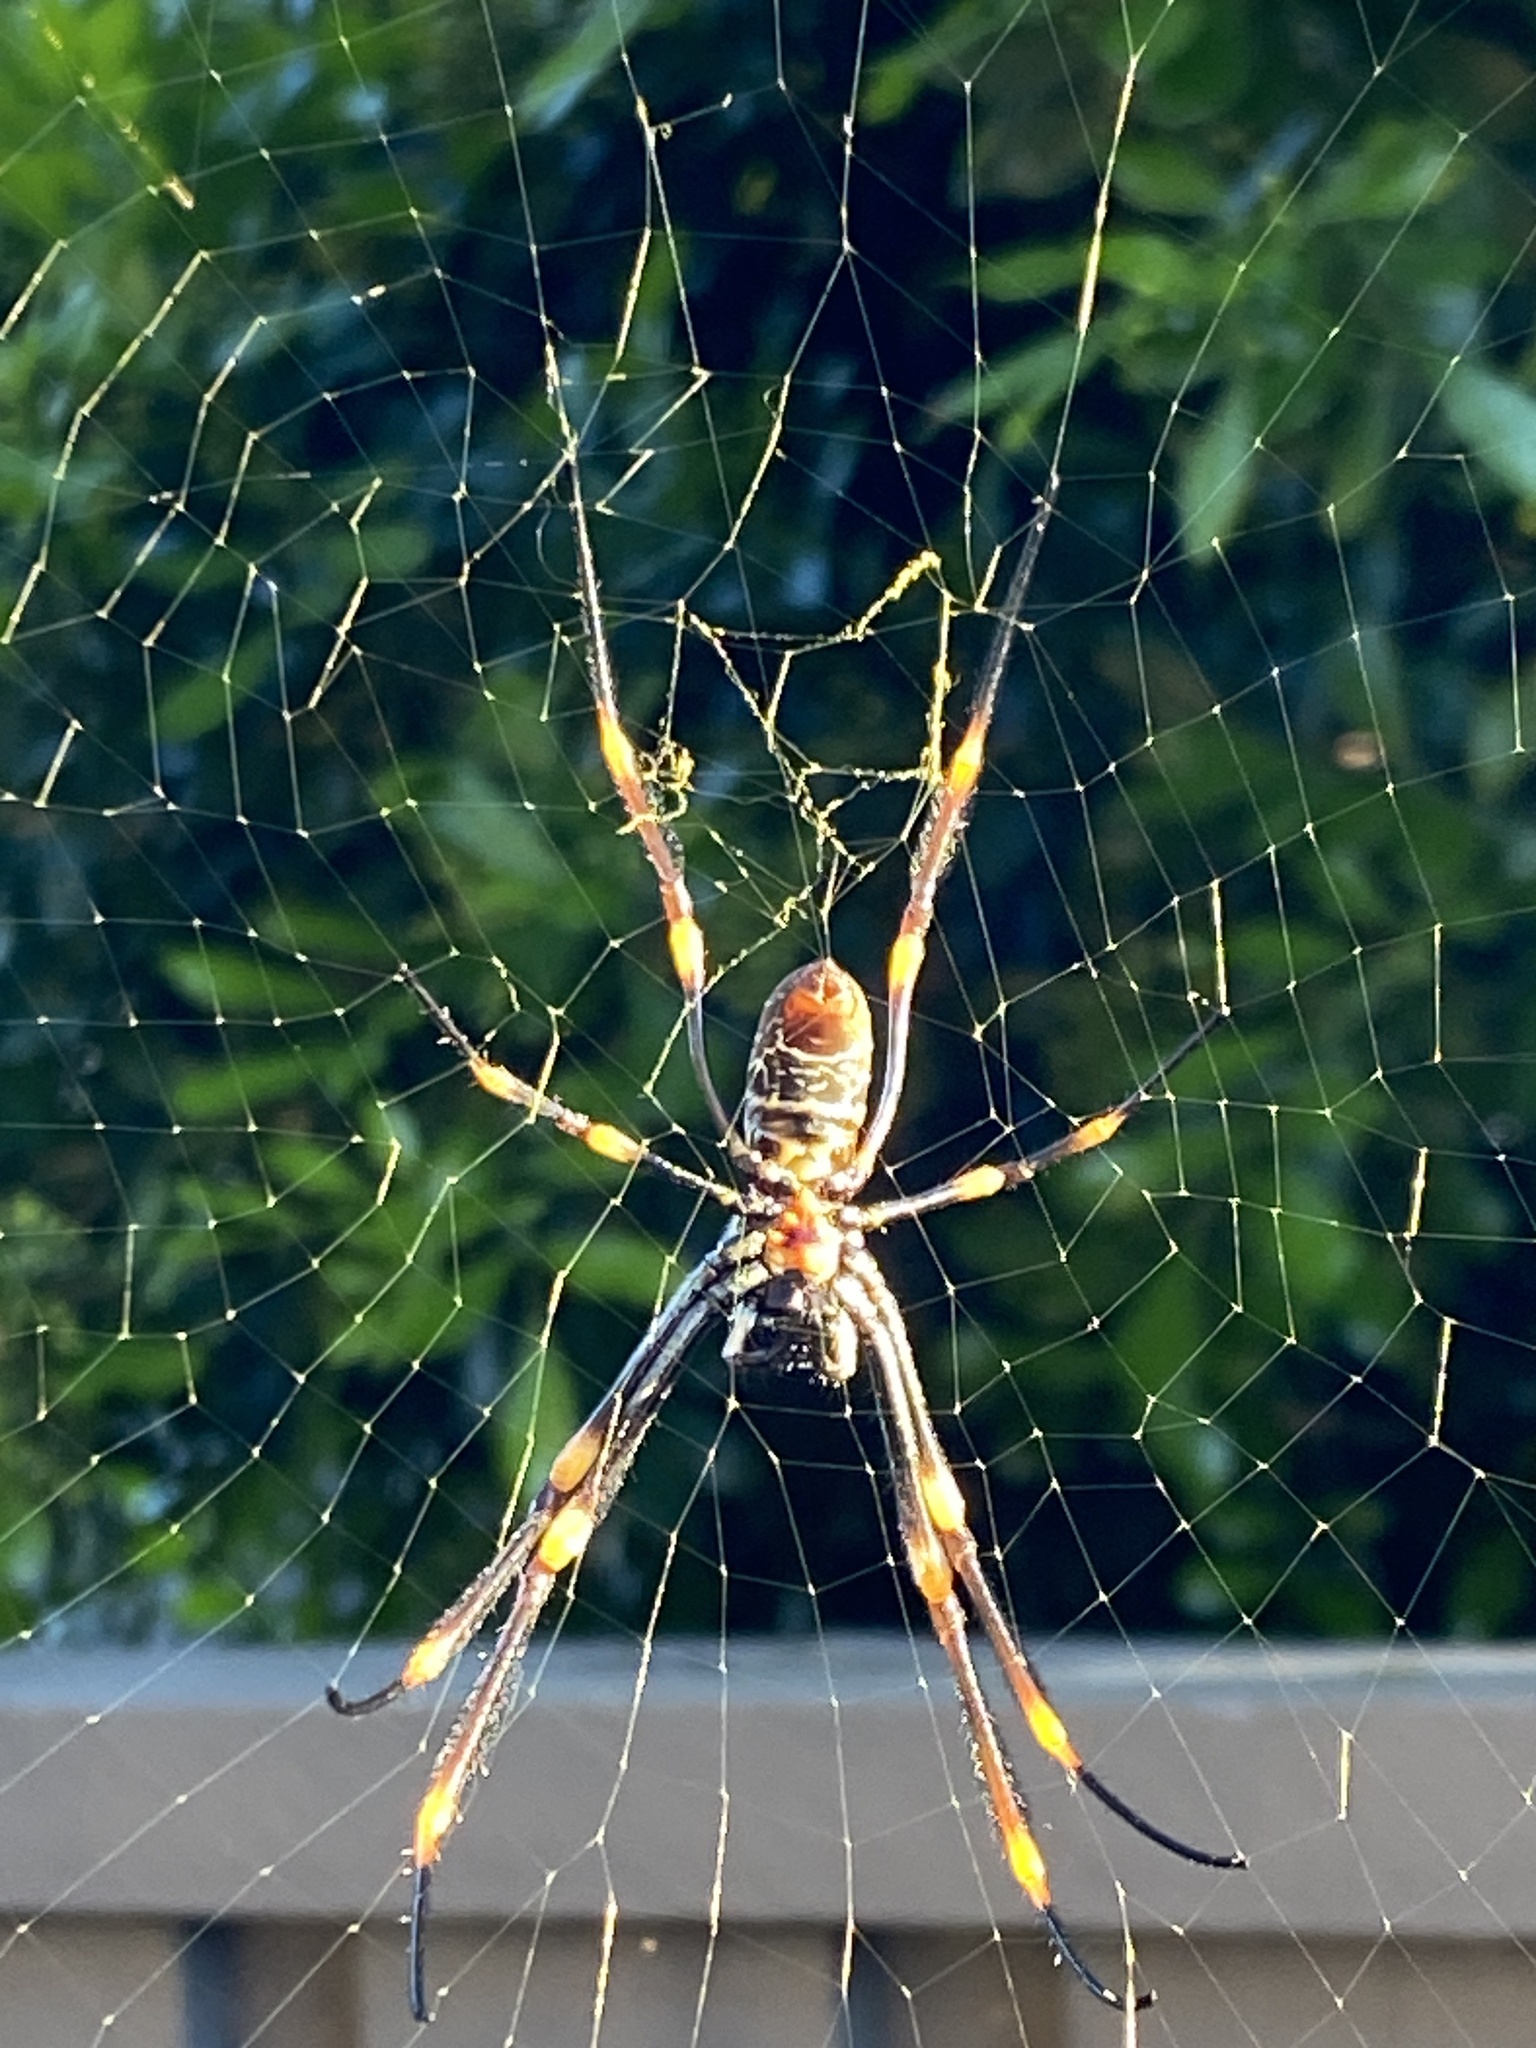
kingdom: Animalia
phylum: Arthropoda
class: Arachnida
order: Araneae
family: Araneidae
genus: Trichonephila
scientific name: Trichonephila plumipes
